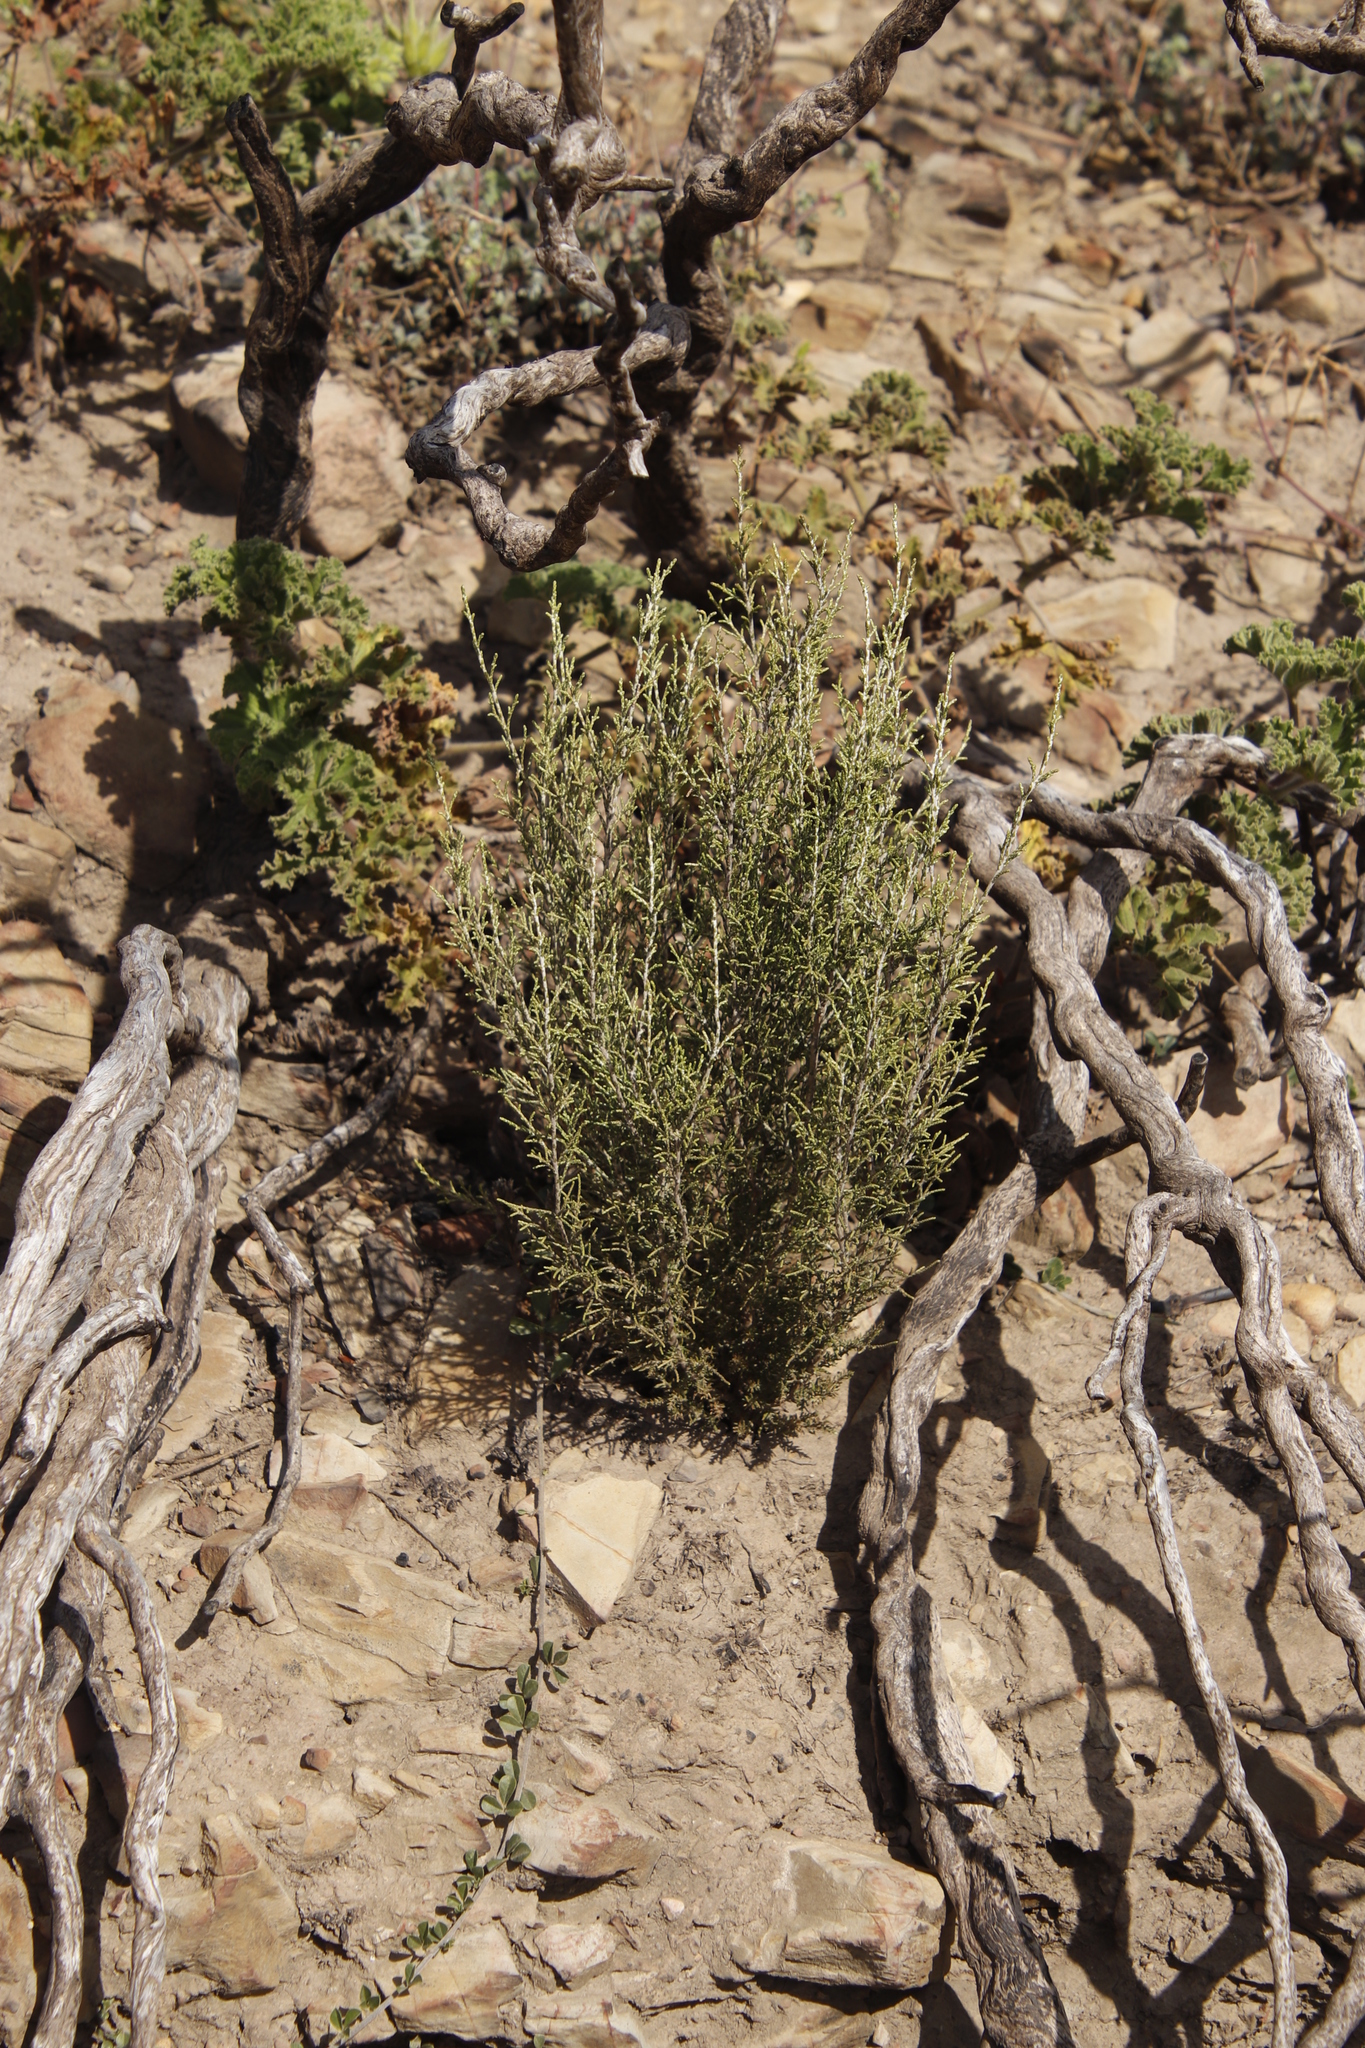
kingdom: Plantae
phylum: Tracheophyta
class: Magnoliopsida
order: Asterales
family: Asteraceae
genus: Dicerothamnus
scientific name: Dicerothamnus rhinocerotis
